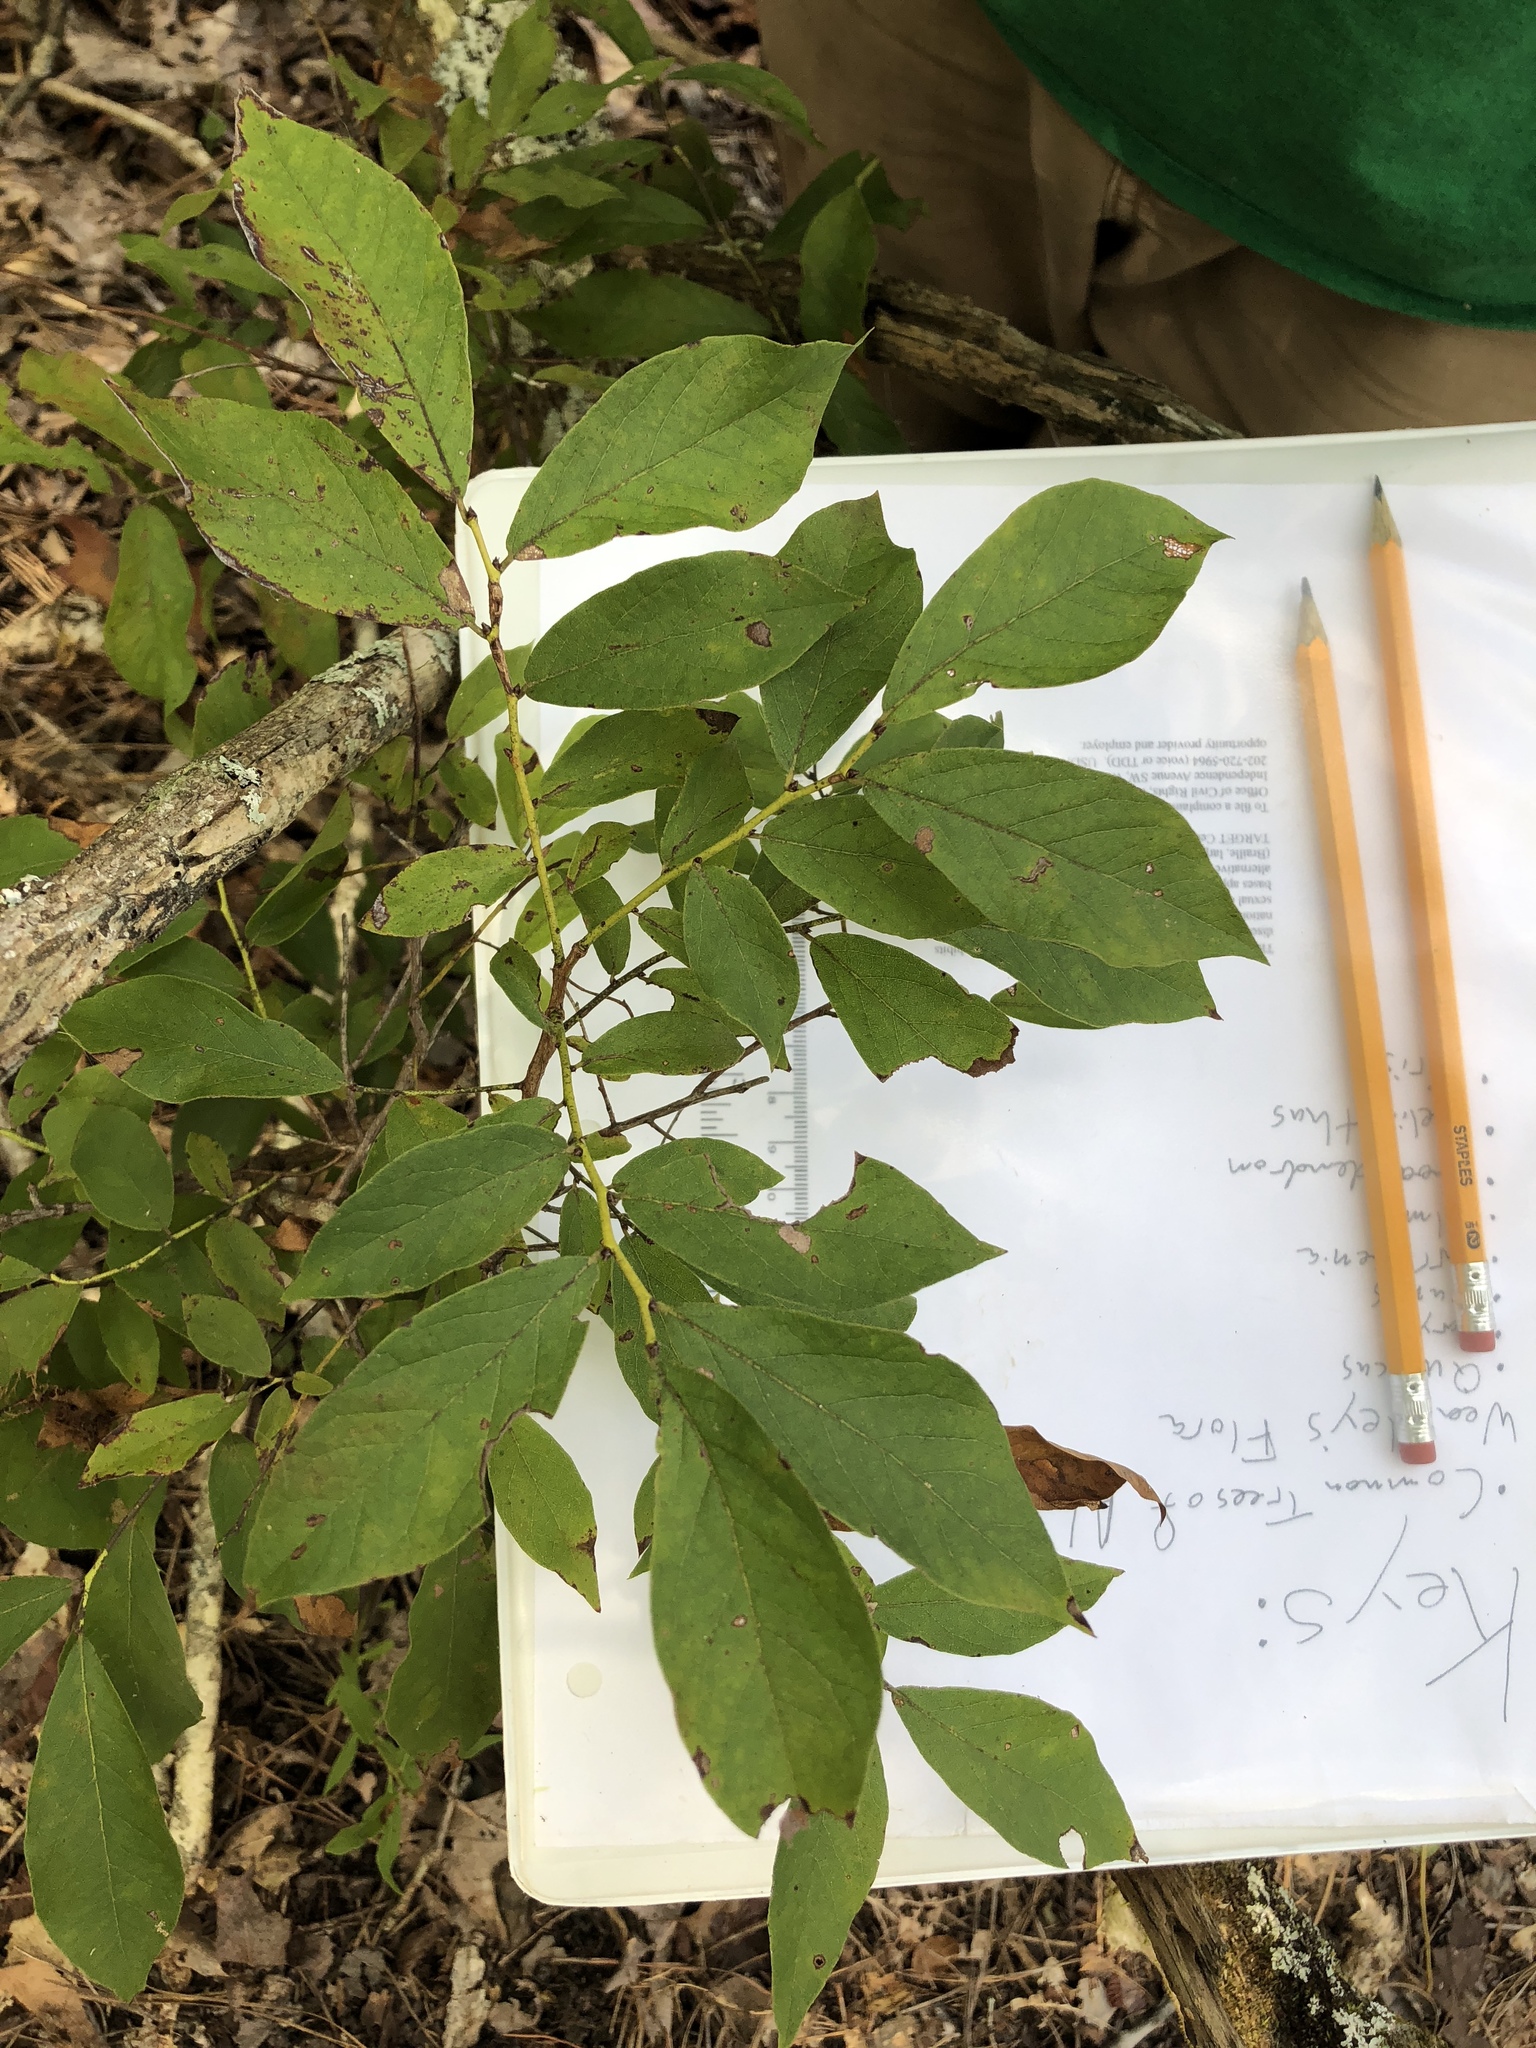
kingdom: Plantae
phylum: Tracheophyta
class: Magnoliopsida
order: Ericales
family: Ericaceae
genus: Vaccinium
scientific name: Vaccinium stamineum
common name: Deerberry
